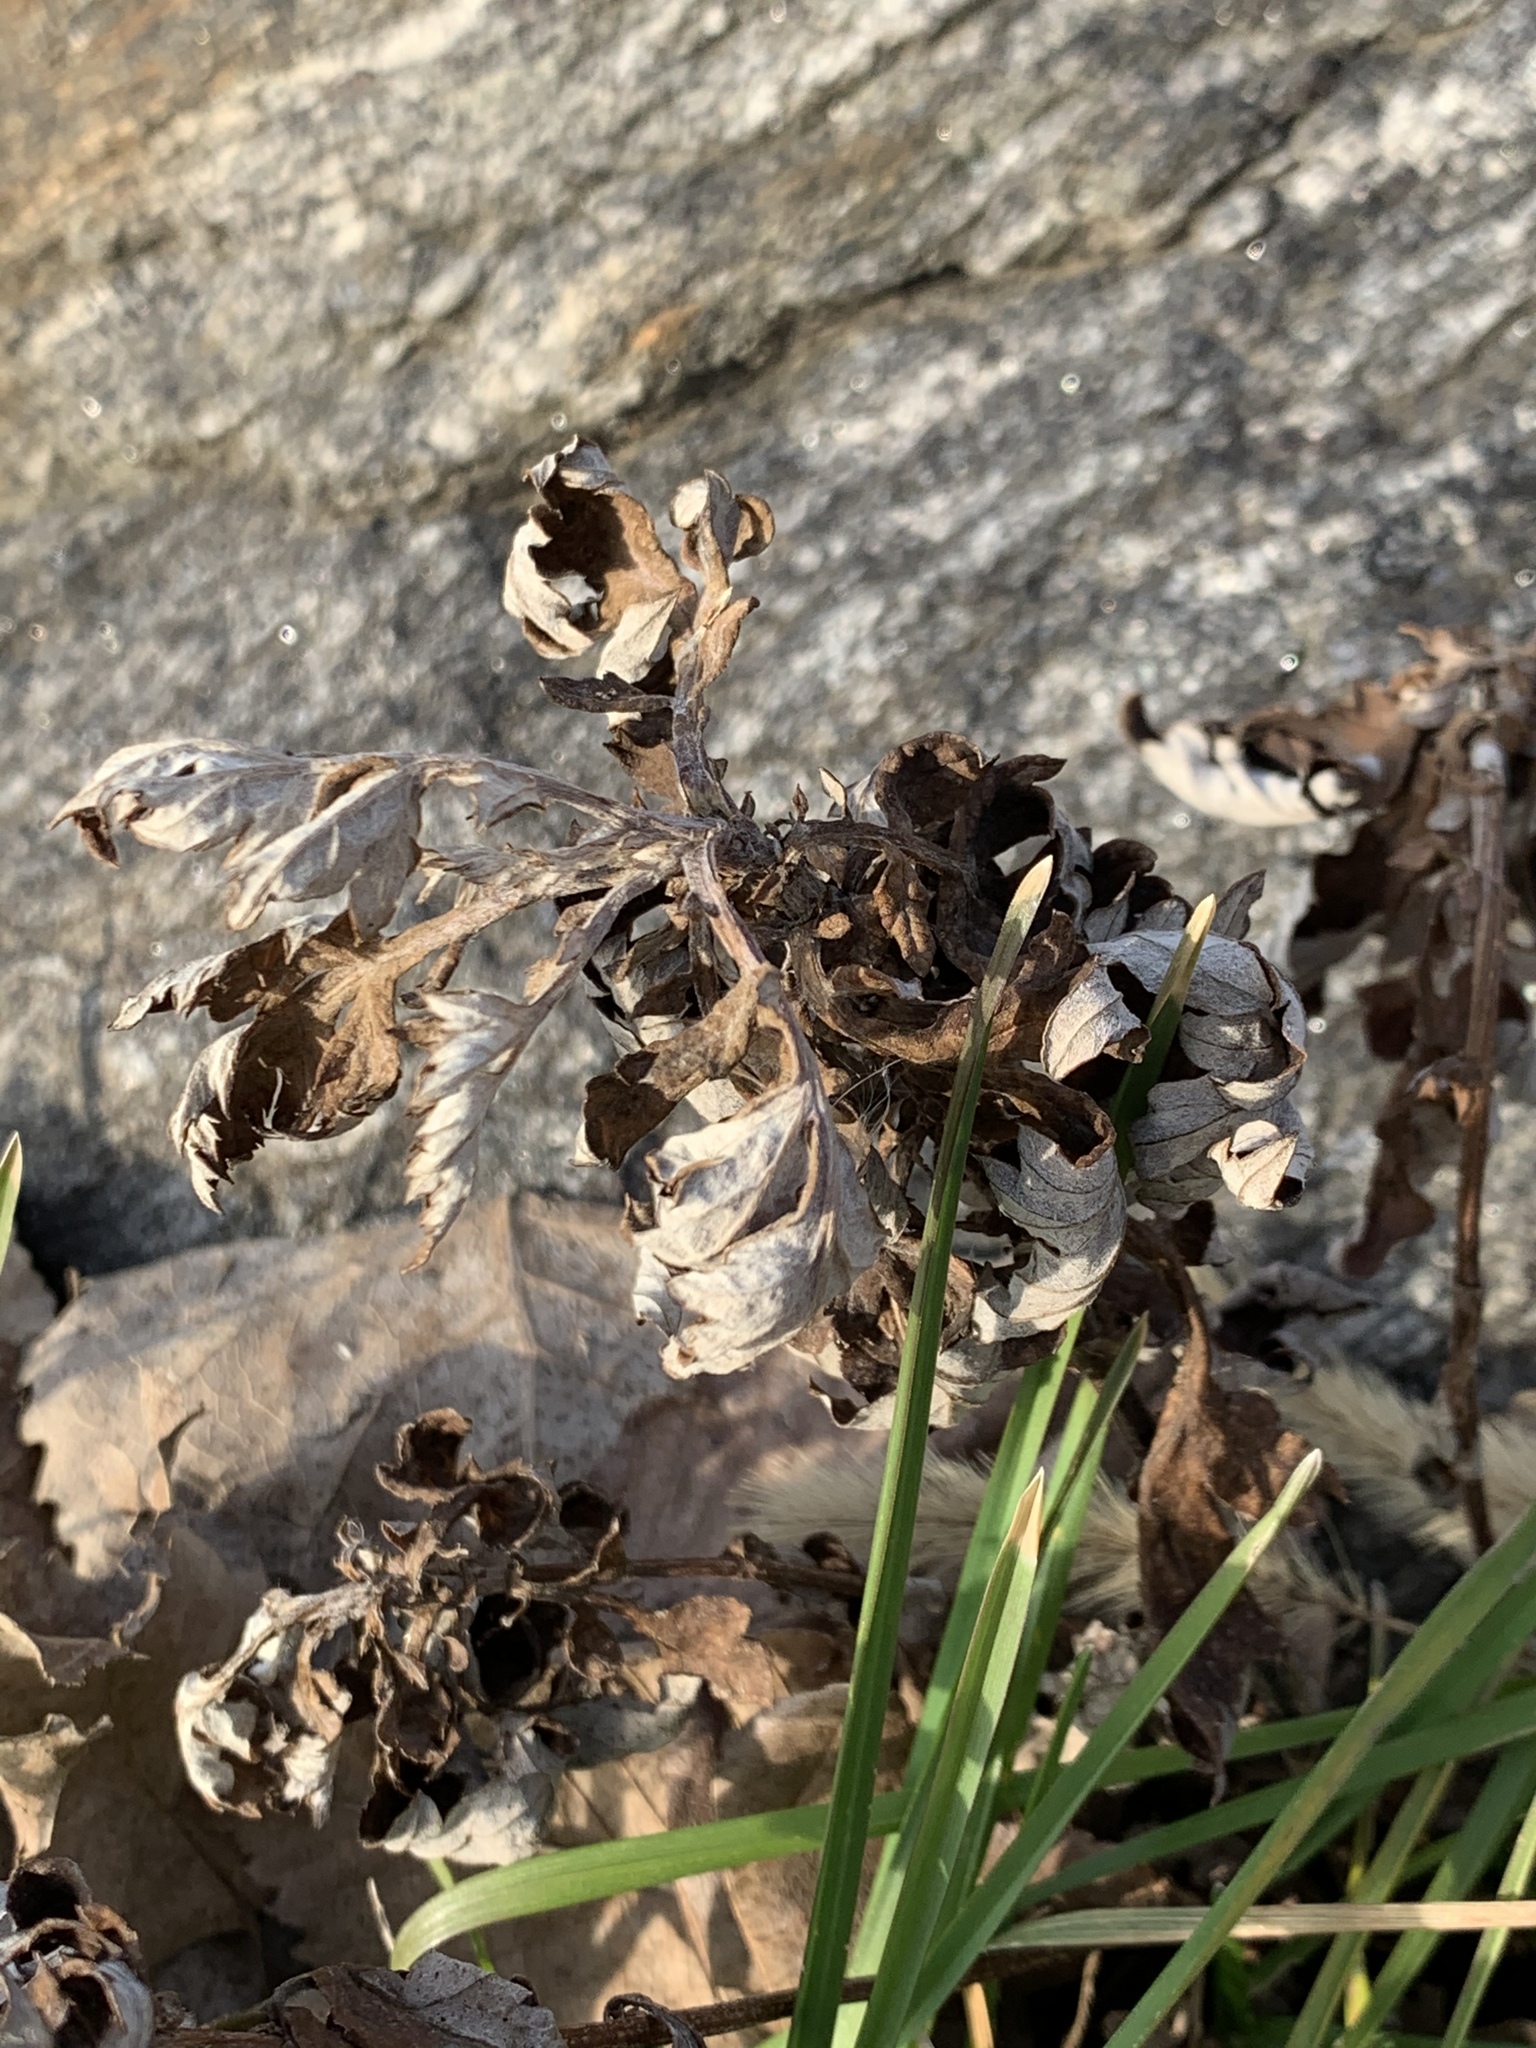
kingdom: Plantae
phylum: Tracheophyta
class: Magnoliopsida
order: Asterales
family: Asteraceae
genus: Artemisia
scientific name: Artemisia vulgaris
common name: Mugwort
